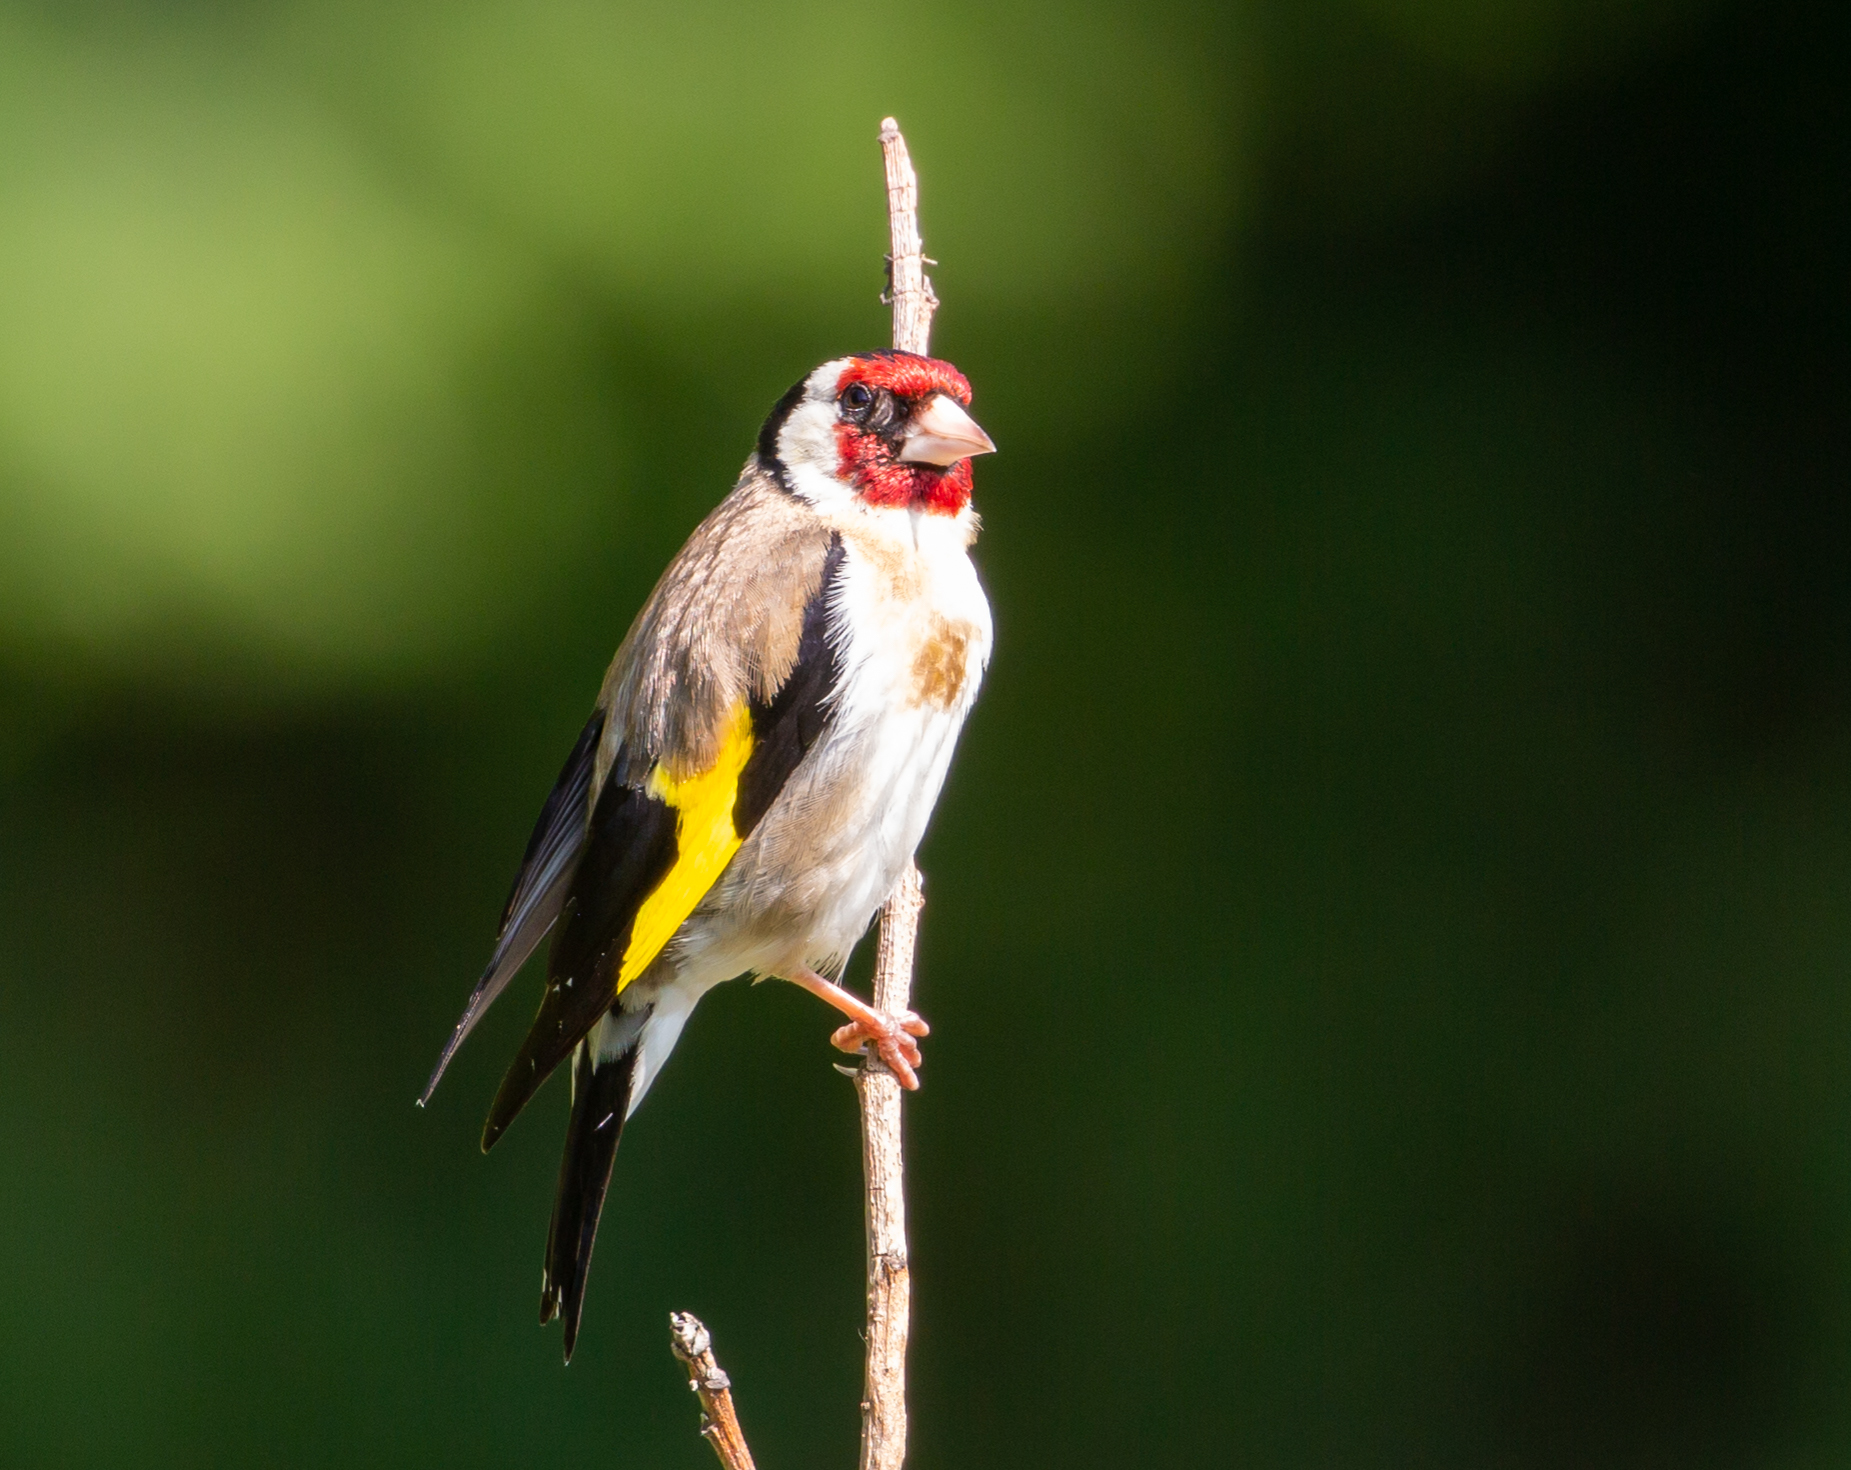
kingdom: Animalia
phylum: Chordata
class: Aves
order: Passeriformes
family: Fringillidae
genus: Carduelis
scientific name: Carduelis carduelis
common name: European goldfinch
